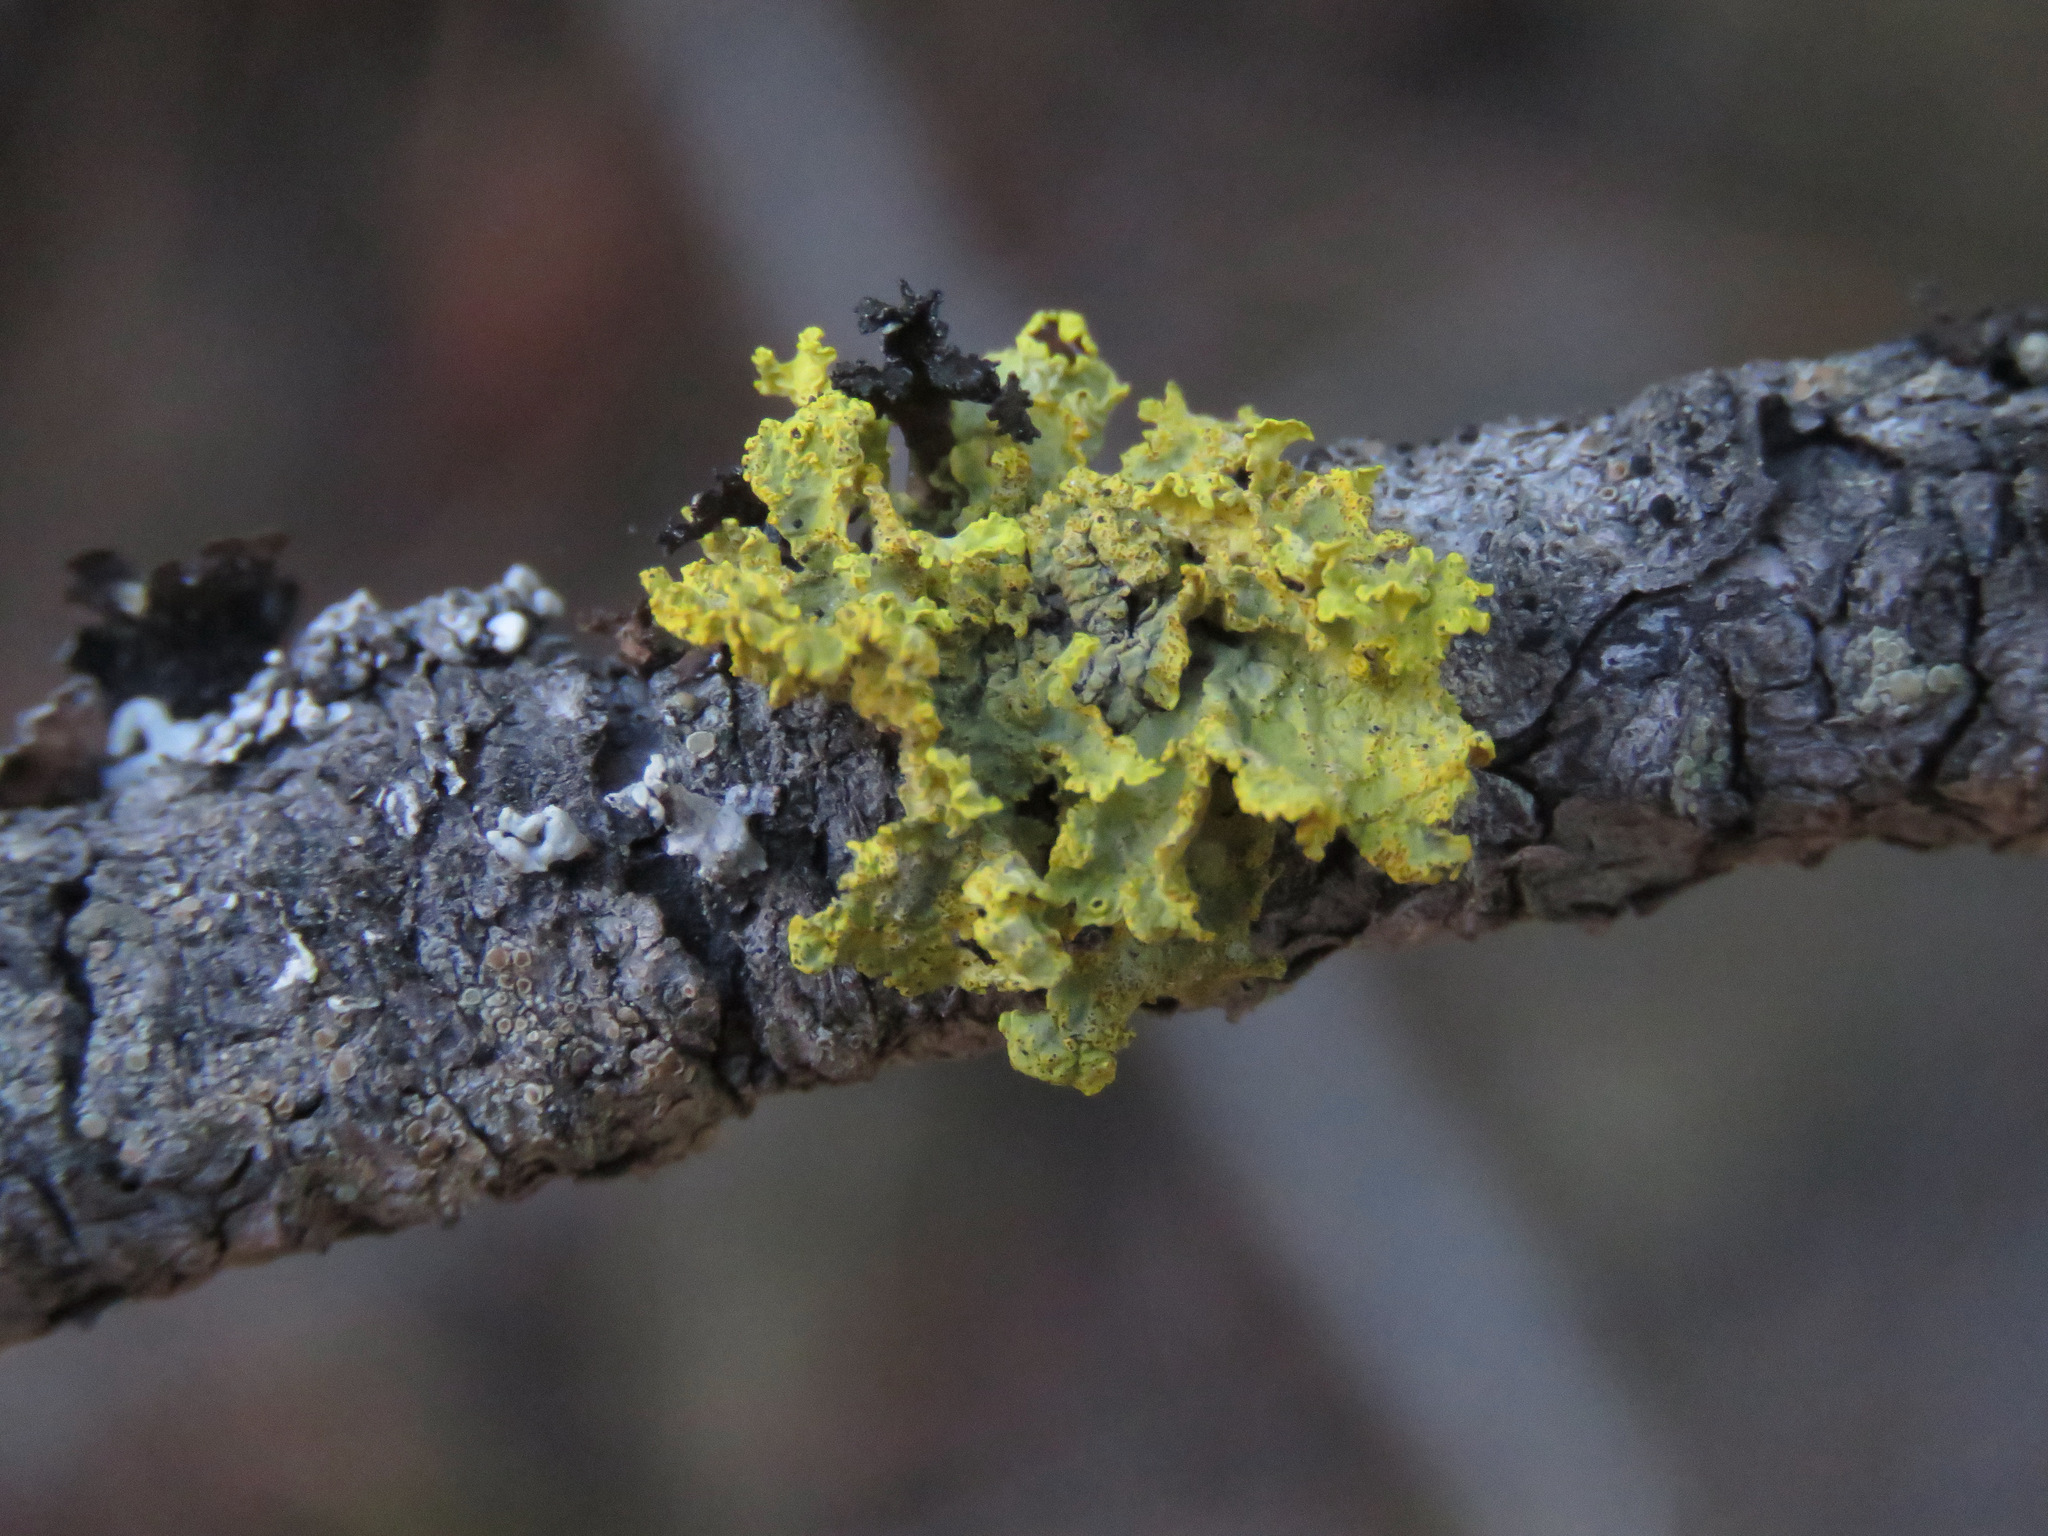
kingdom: Fungi
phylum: Ascomycota
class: Lecanoromycetes
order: Lecanorales
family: Parmeliaceae
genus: Vulpicida
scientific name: Vulpicida canadensis
